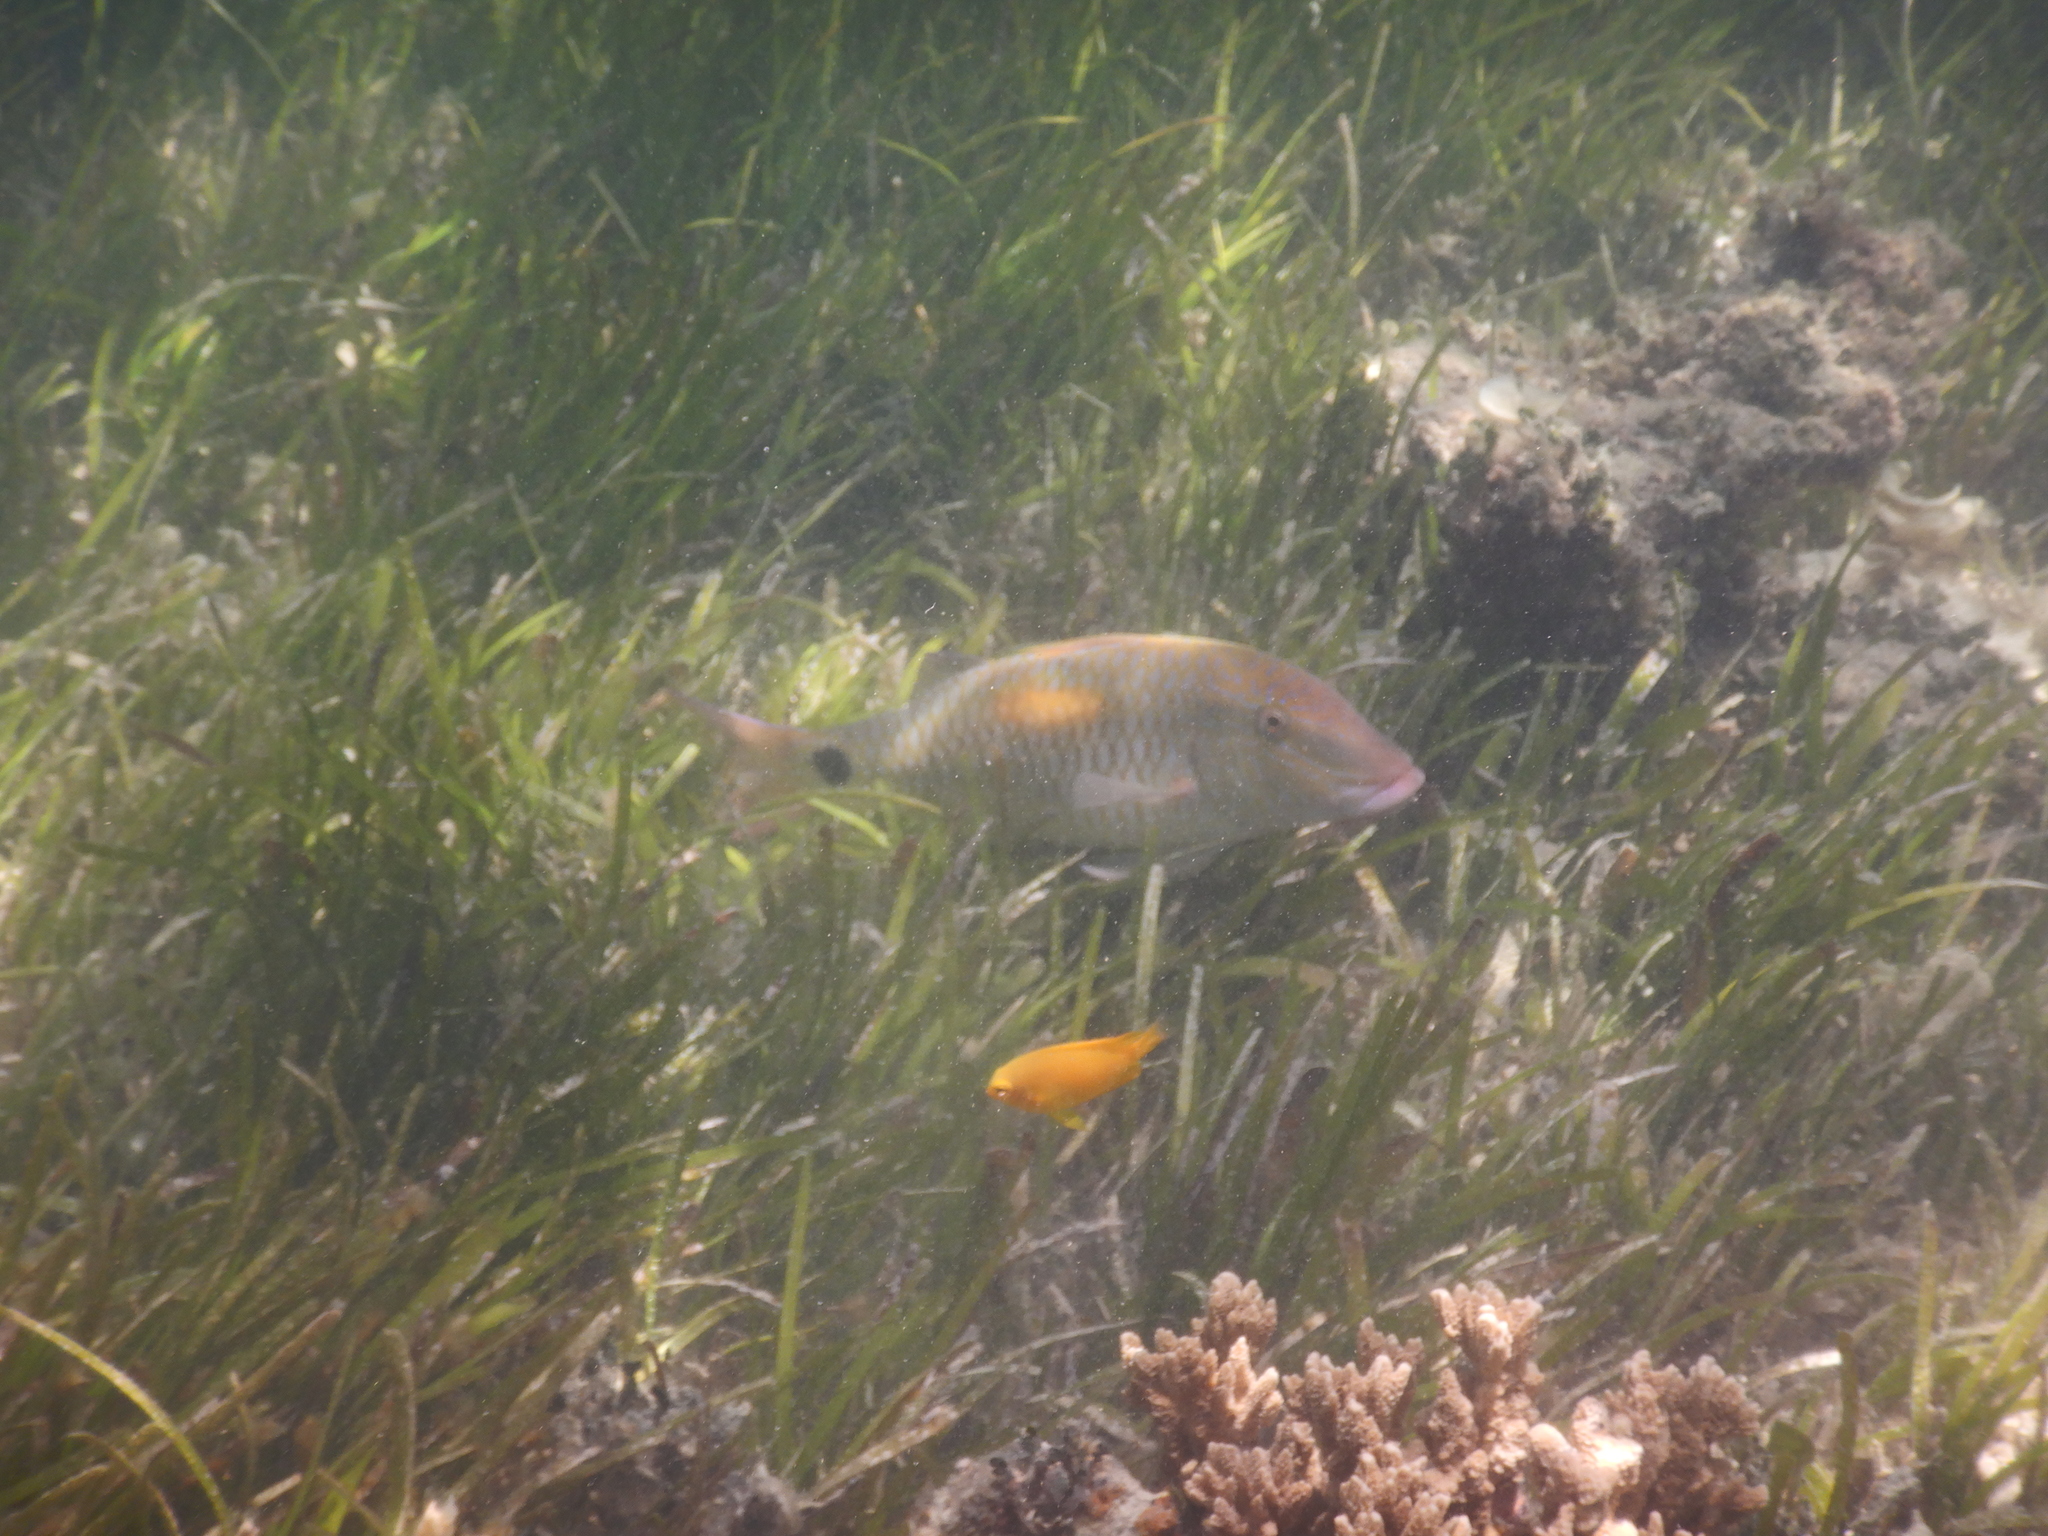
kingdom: Animalia
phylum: Chordata
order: Perciformes
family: Mullidae
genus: Parupeneus
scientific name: Parupeneus indicus
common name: Indian goatfish
